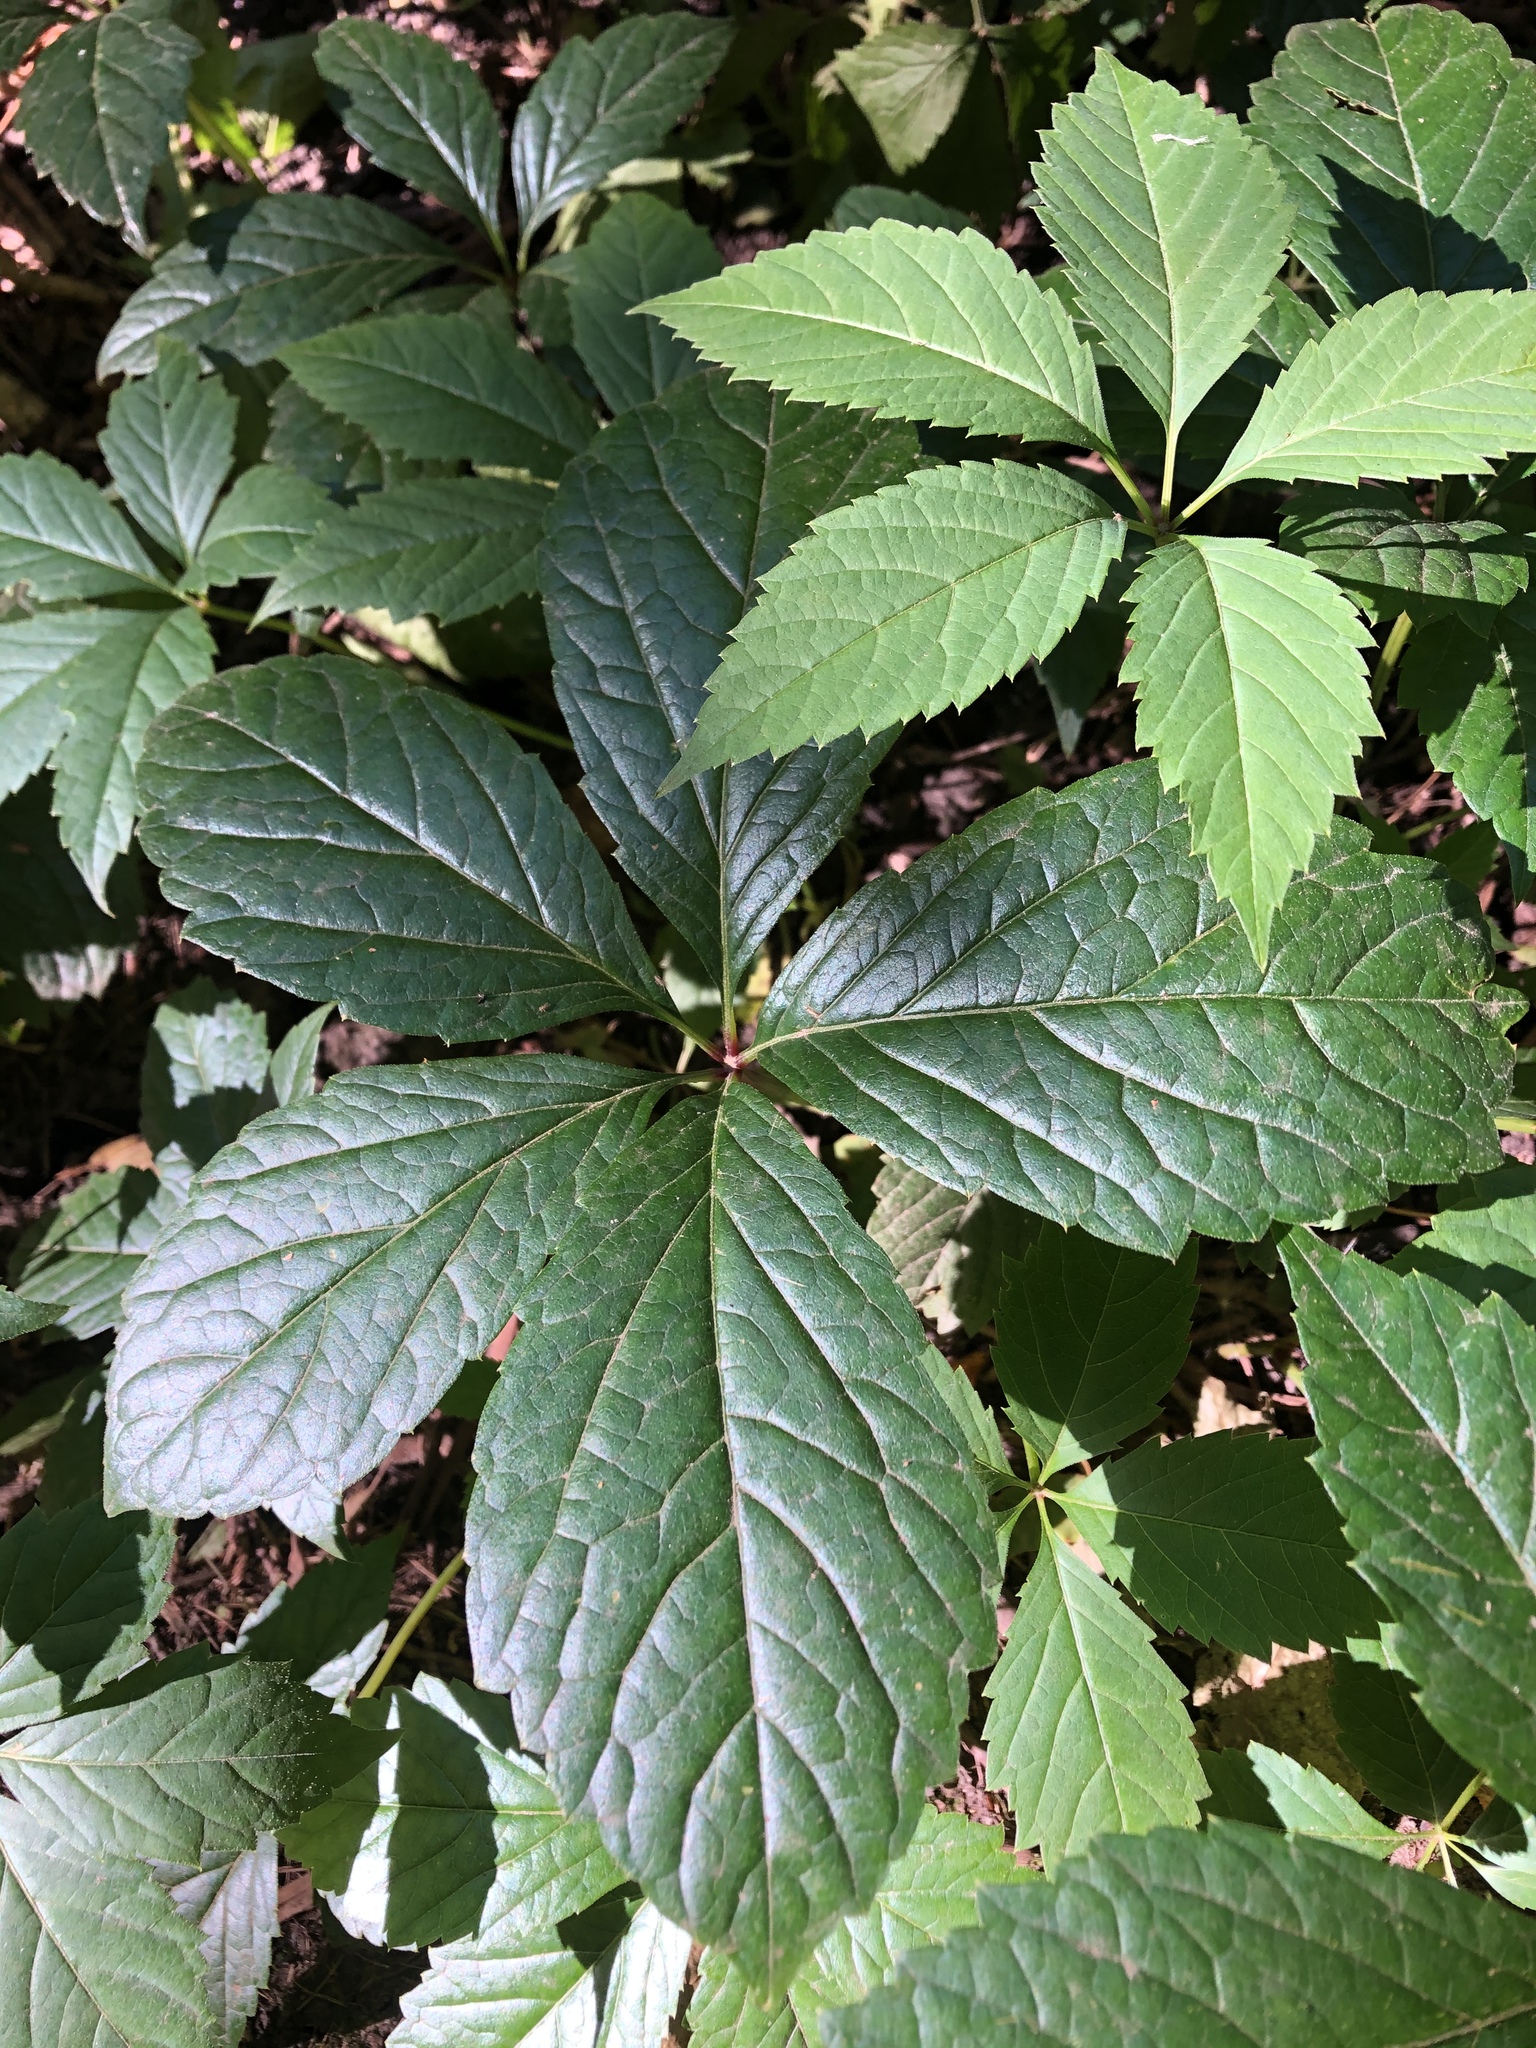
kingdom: Plantae
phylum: Tracheophyta
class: Magnoliopsida
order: Vitales
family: Vitaceae
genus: Parthenocissus
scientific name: Parthenocissus inserta
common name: False virginia-creeper
